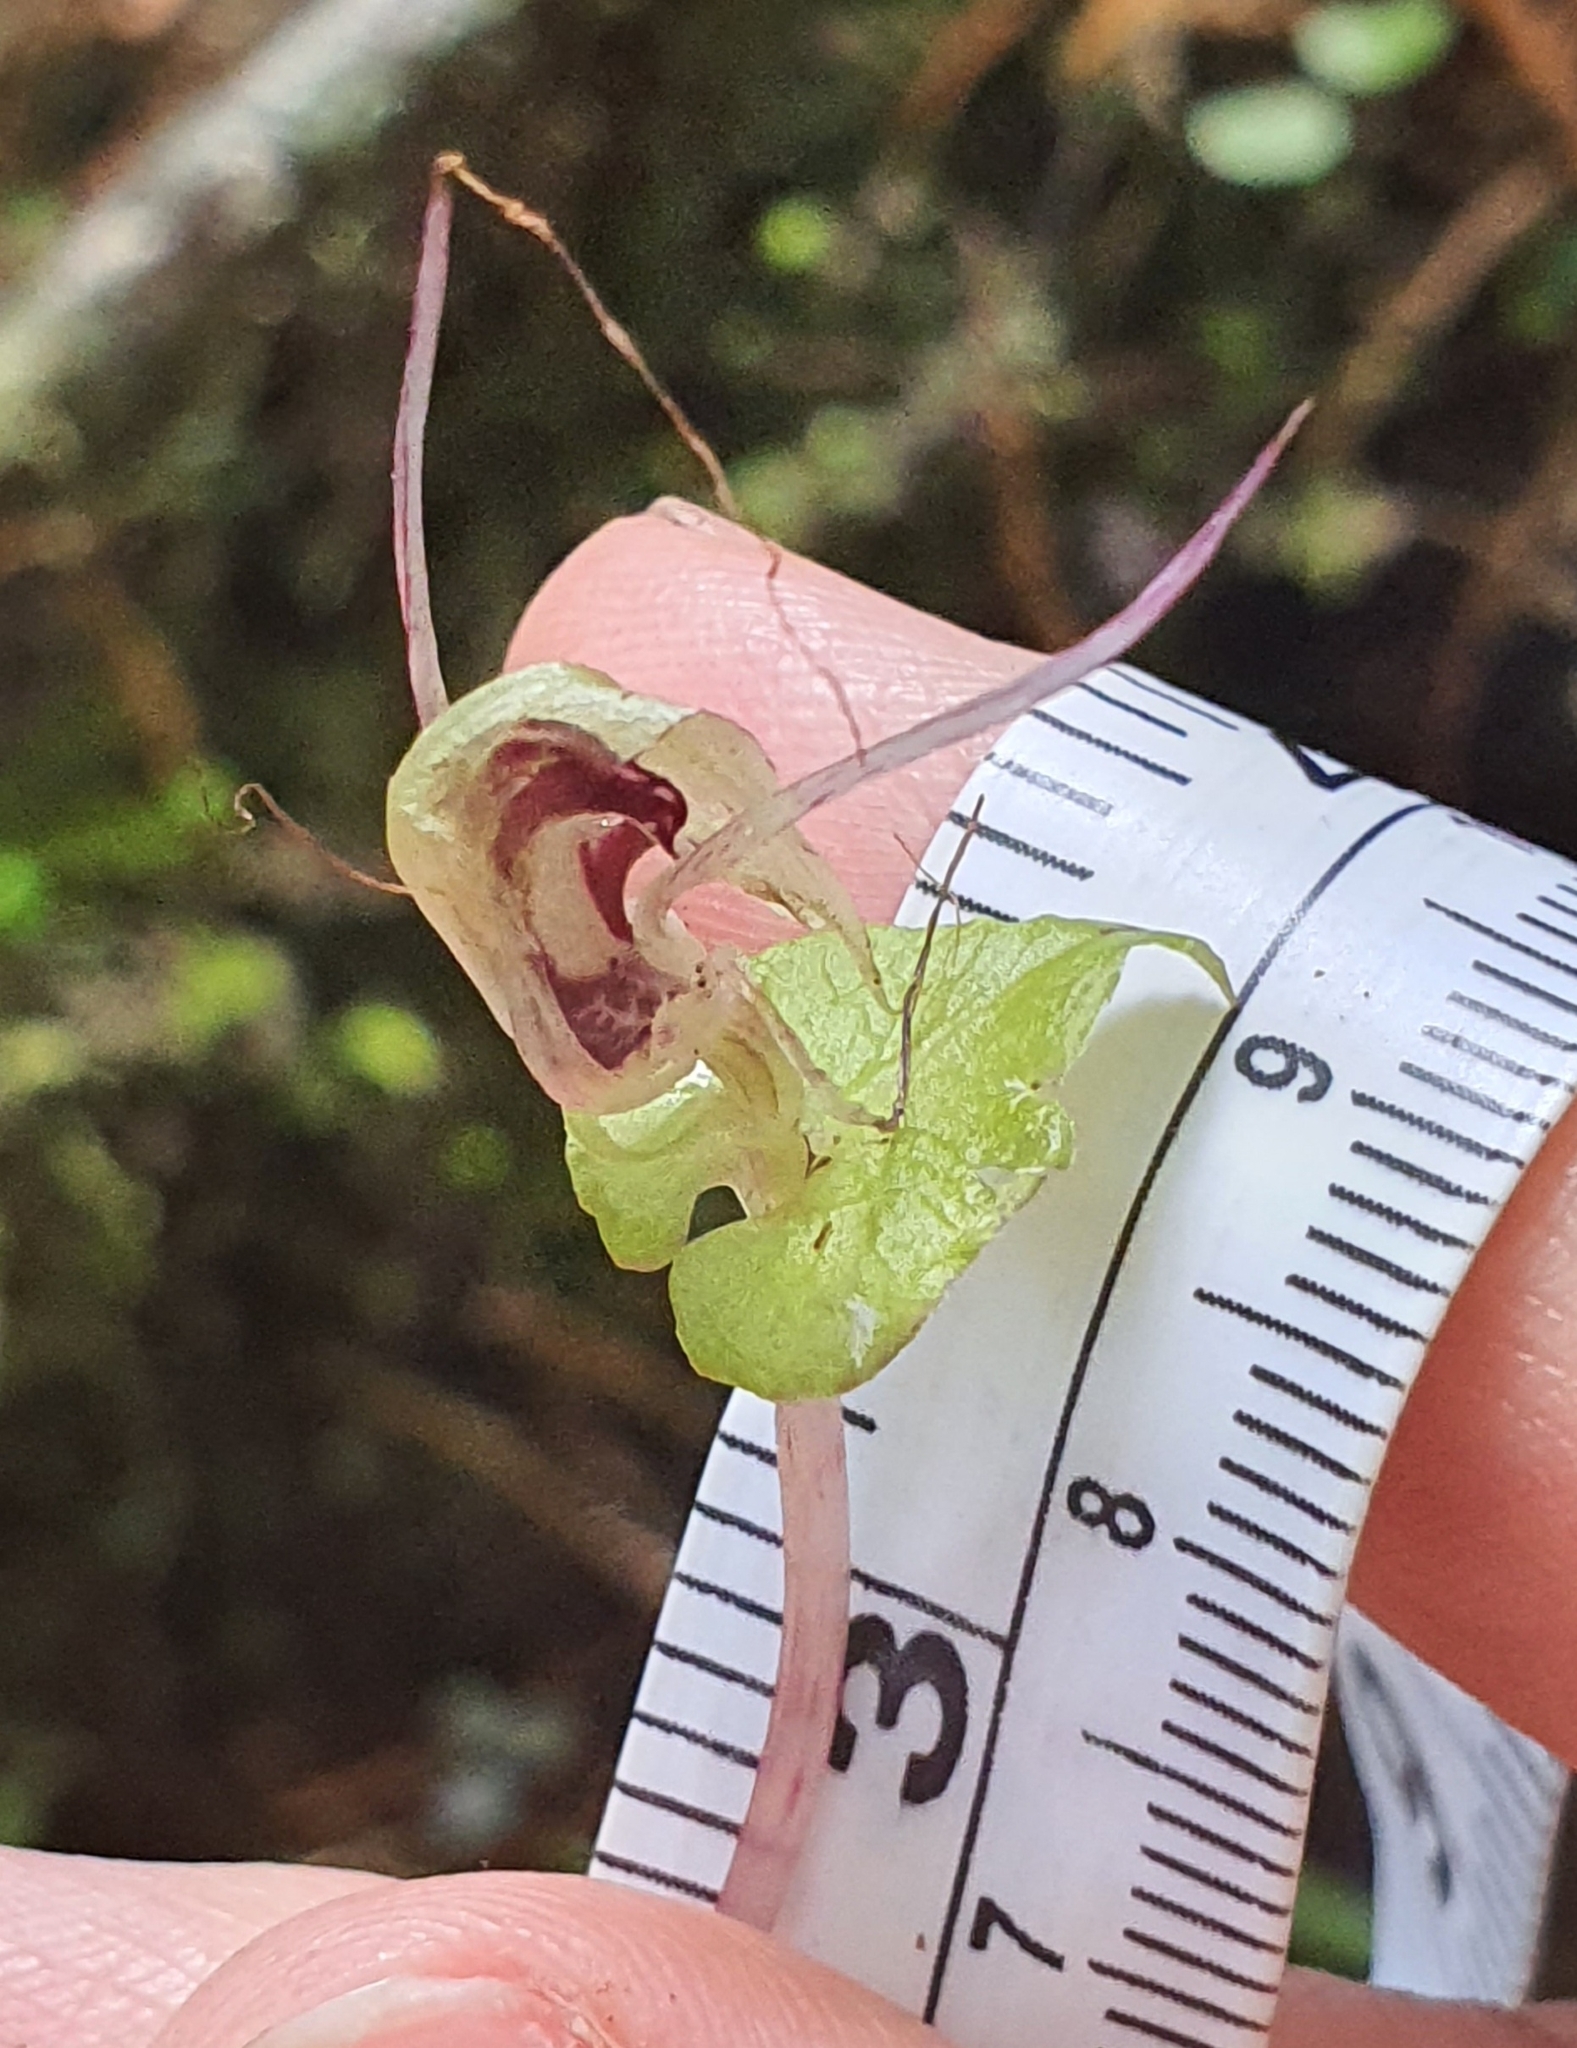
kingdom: Plantae
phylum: Tracheophyta
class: Liliopsida
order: Asparagales
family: Orchidaceae
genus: Corybas
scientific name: Corybas acuminatus
